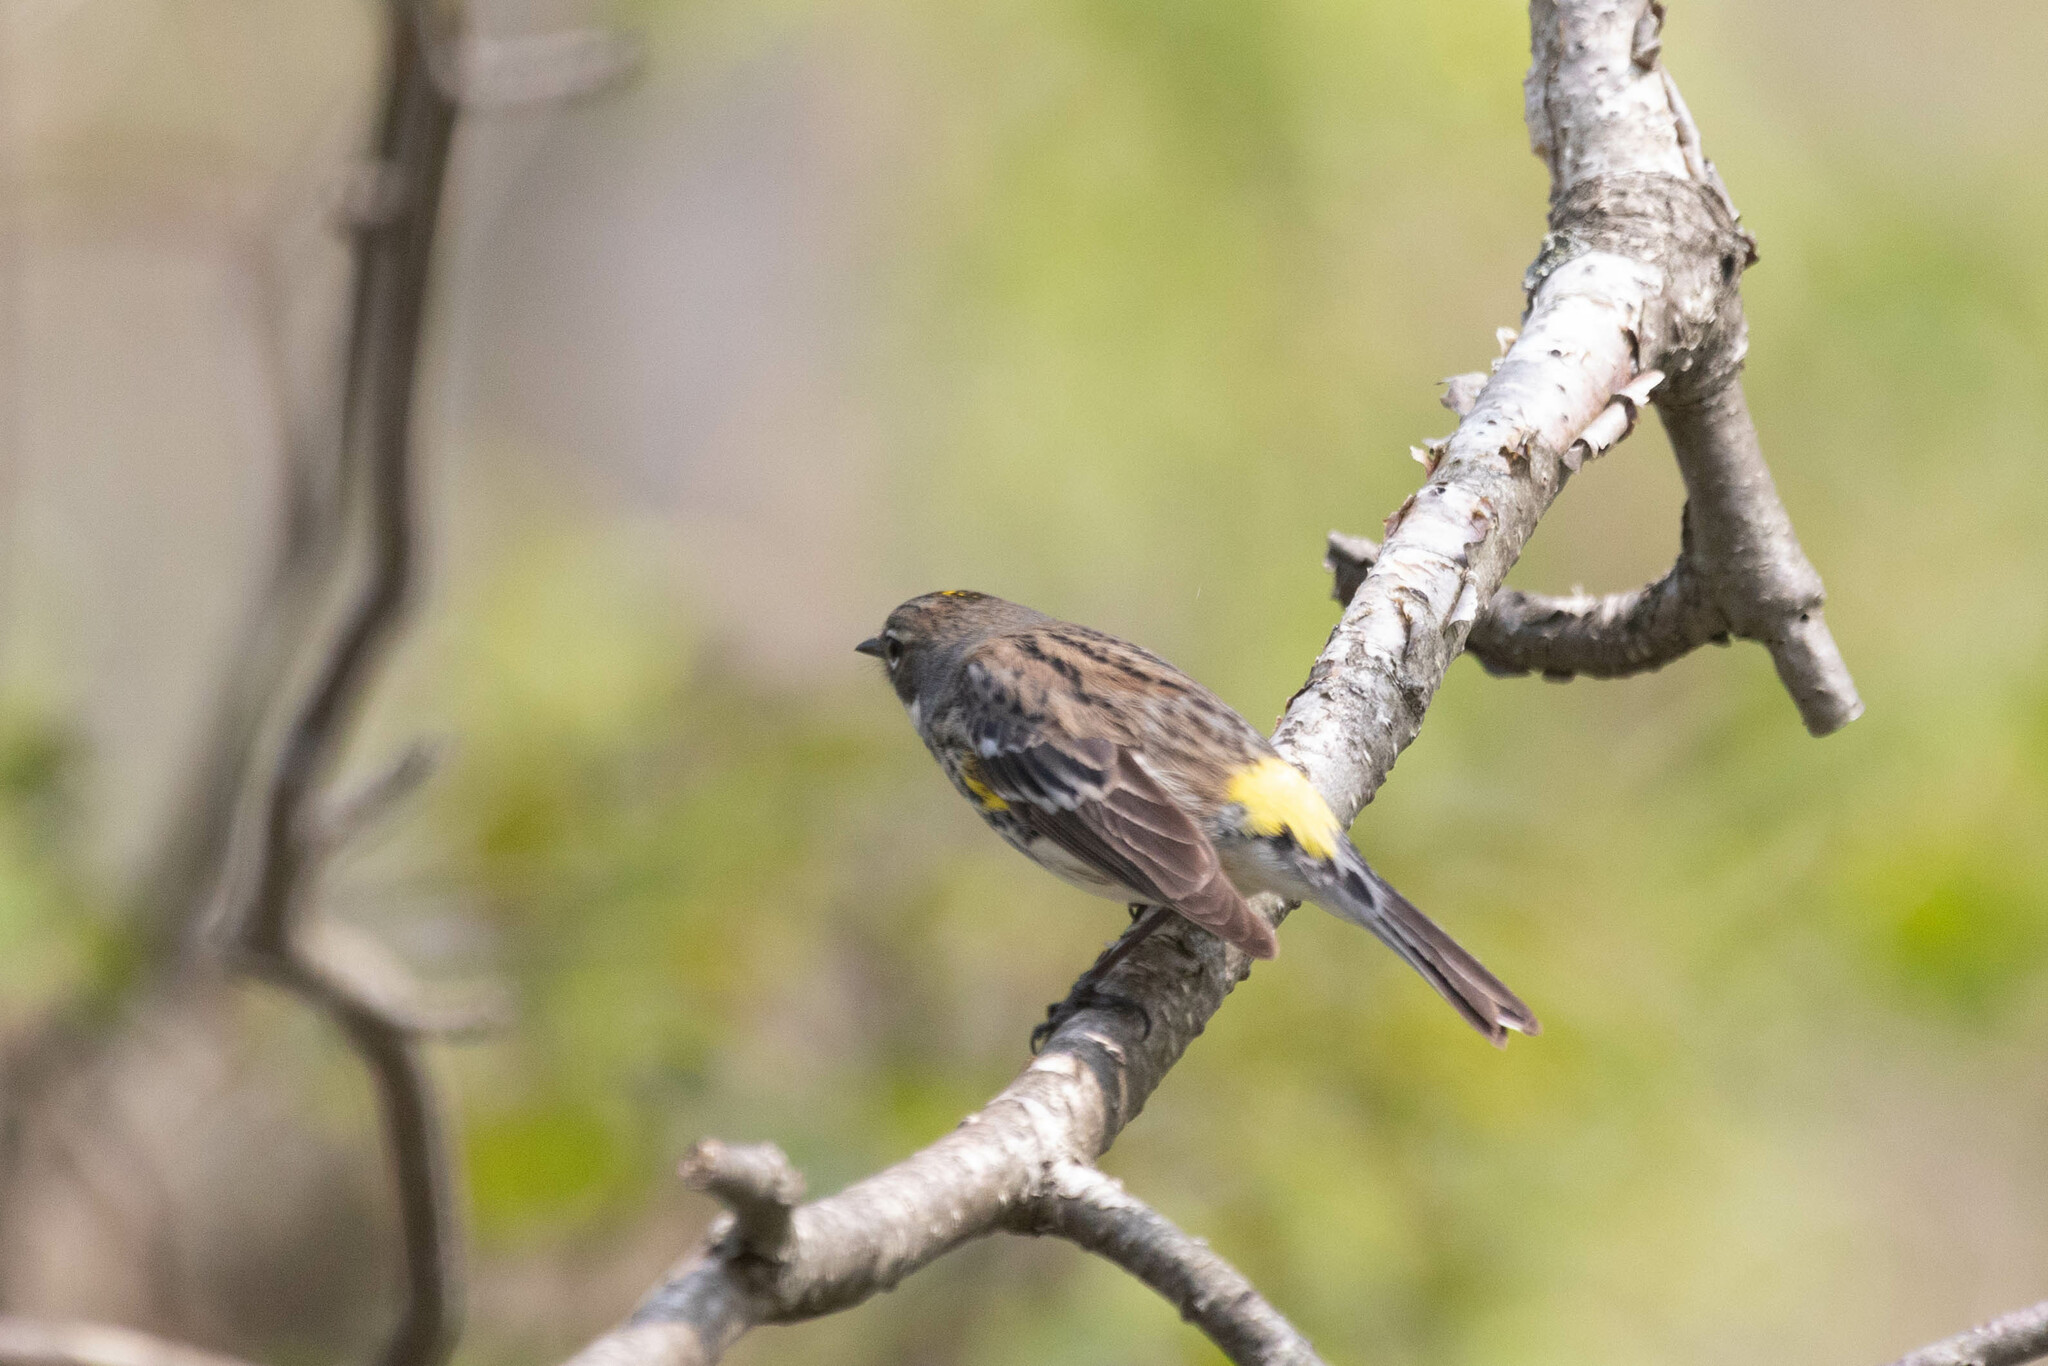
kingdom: Animalia
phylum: Chordata
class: Aves
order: Passeriformes
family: Parulidae
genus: Setophaga
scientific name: Setophaga coronata
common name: Myrtle warbler
